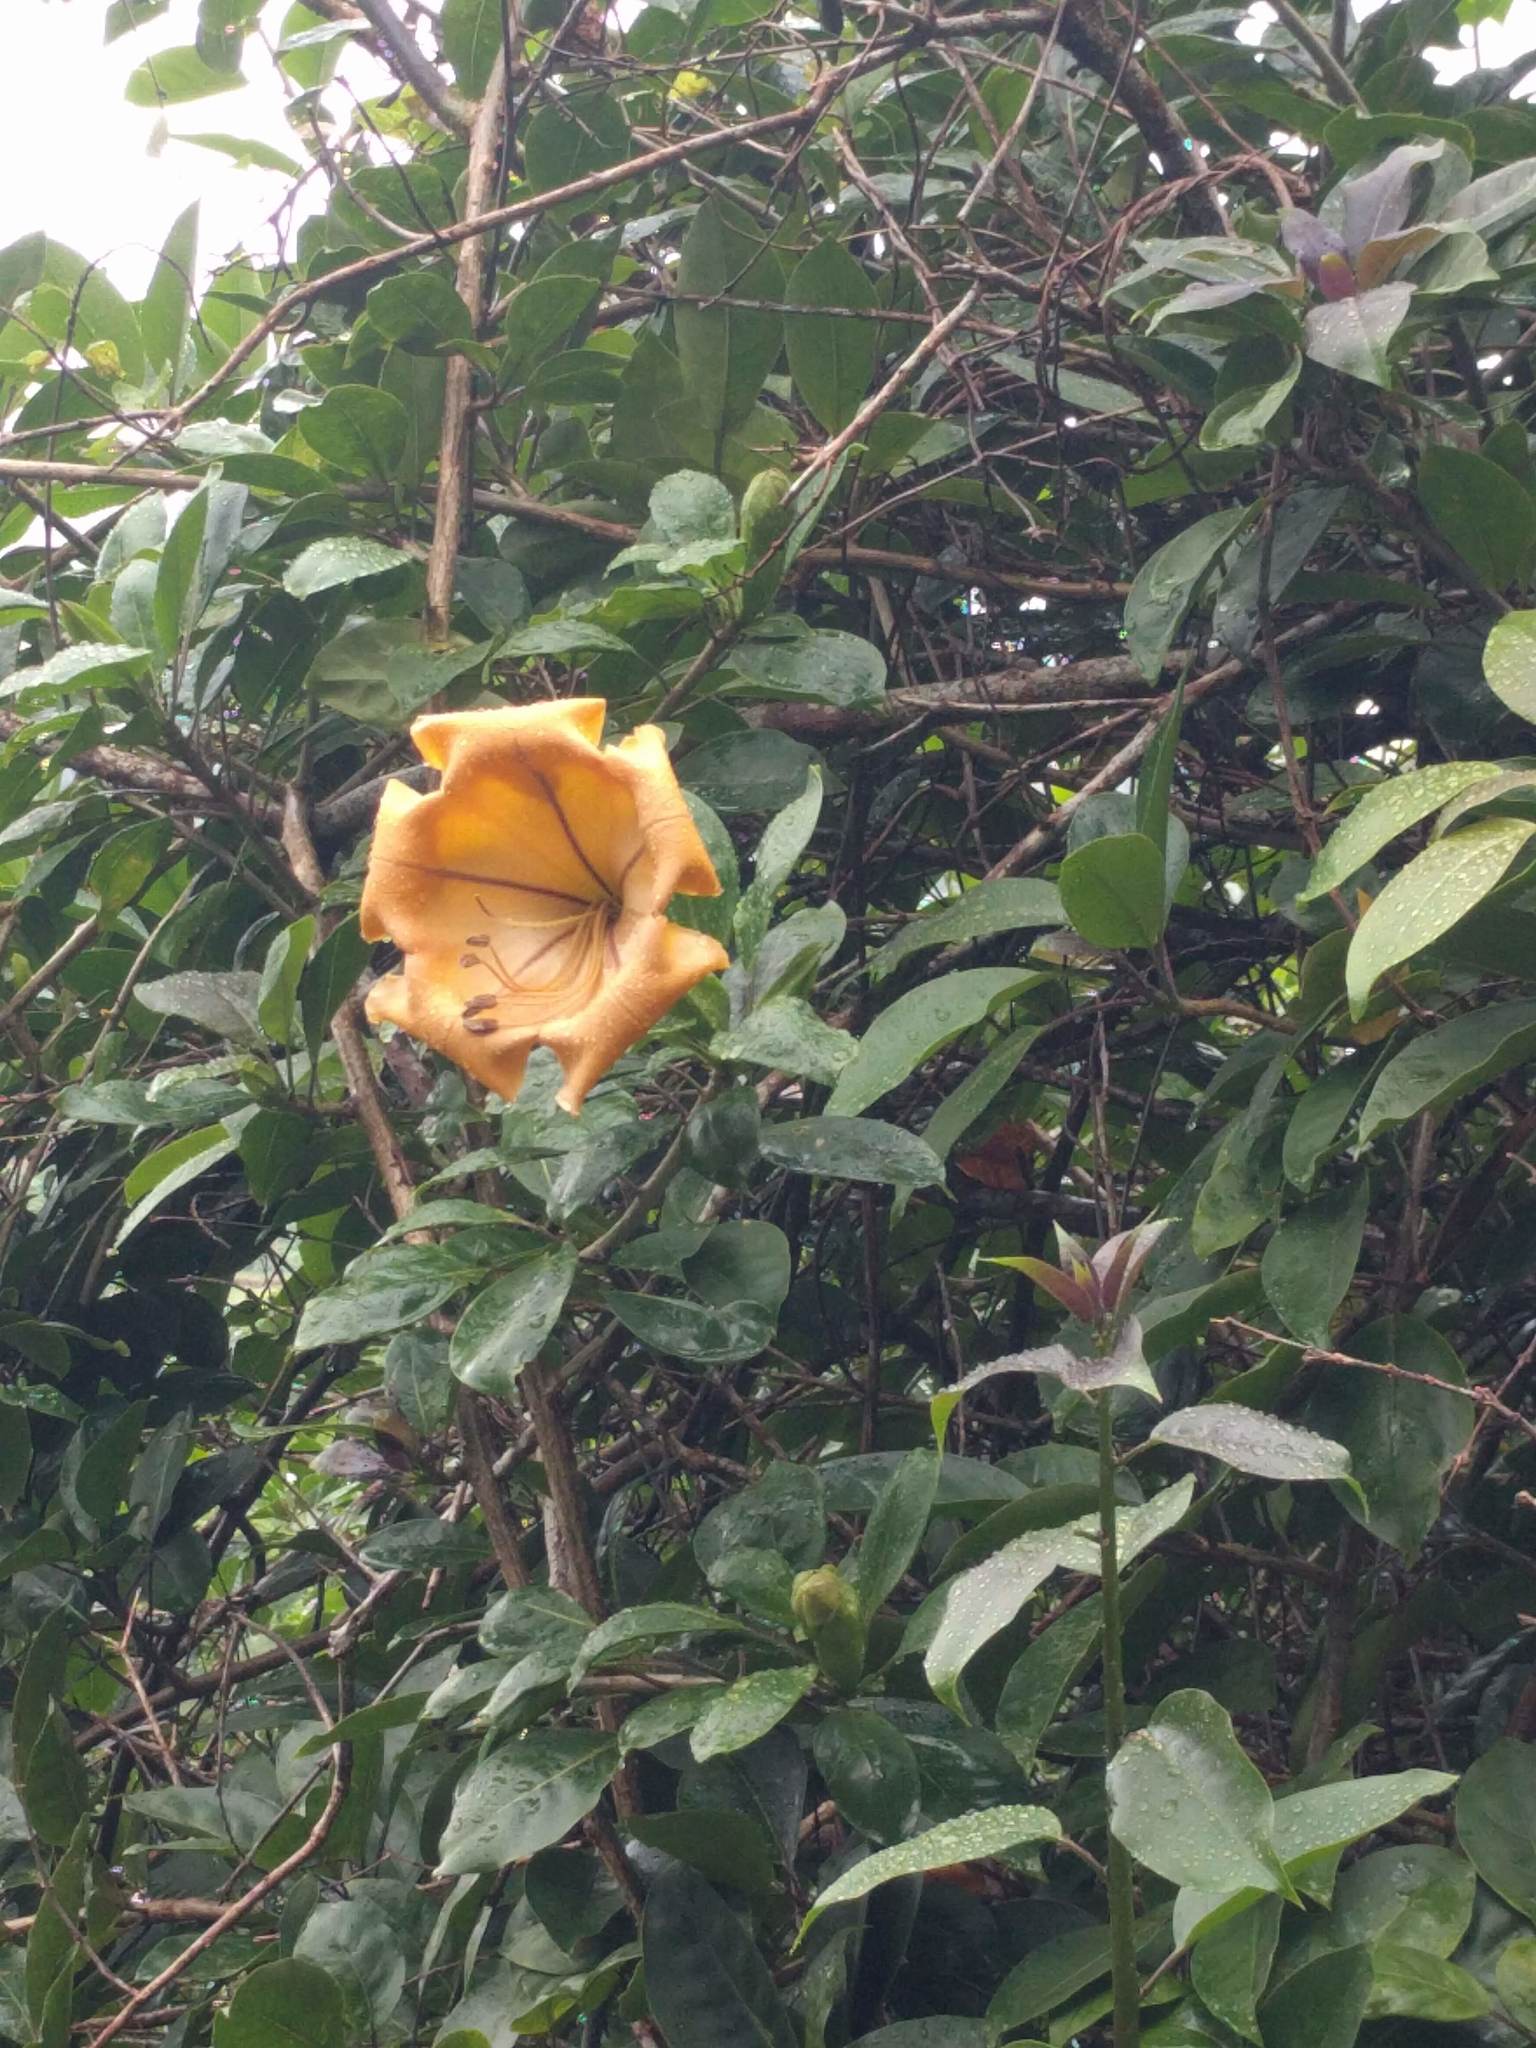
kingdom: Plantae
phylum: Tracheophyta
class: Magnoliopsida
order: Solanales
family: Solanaceae
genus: Solandra
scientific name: Solandra maxima
